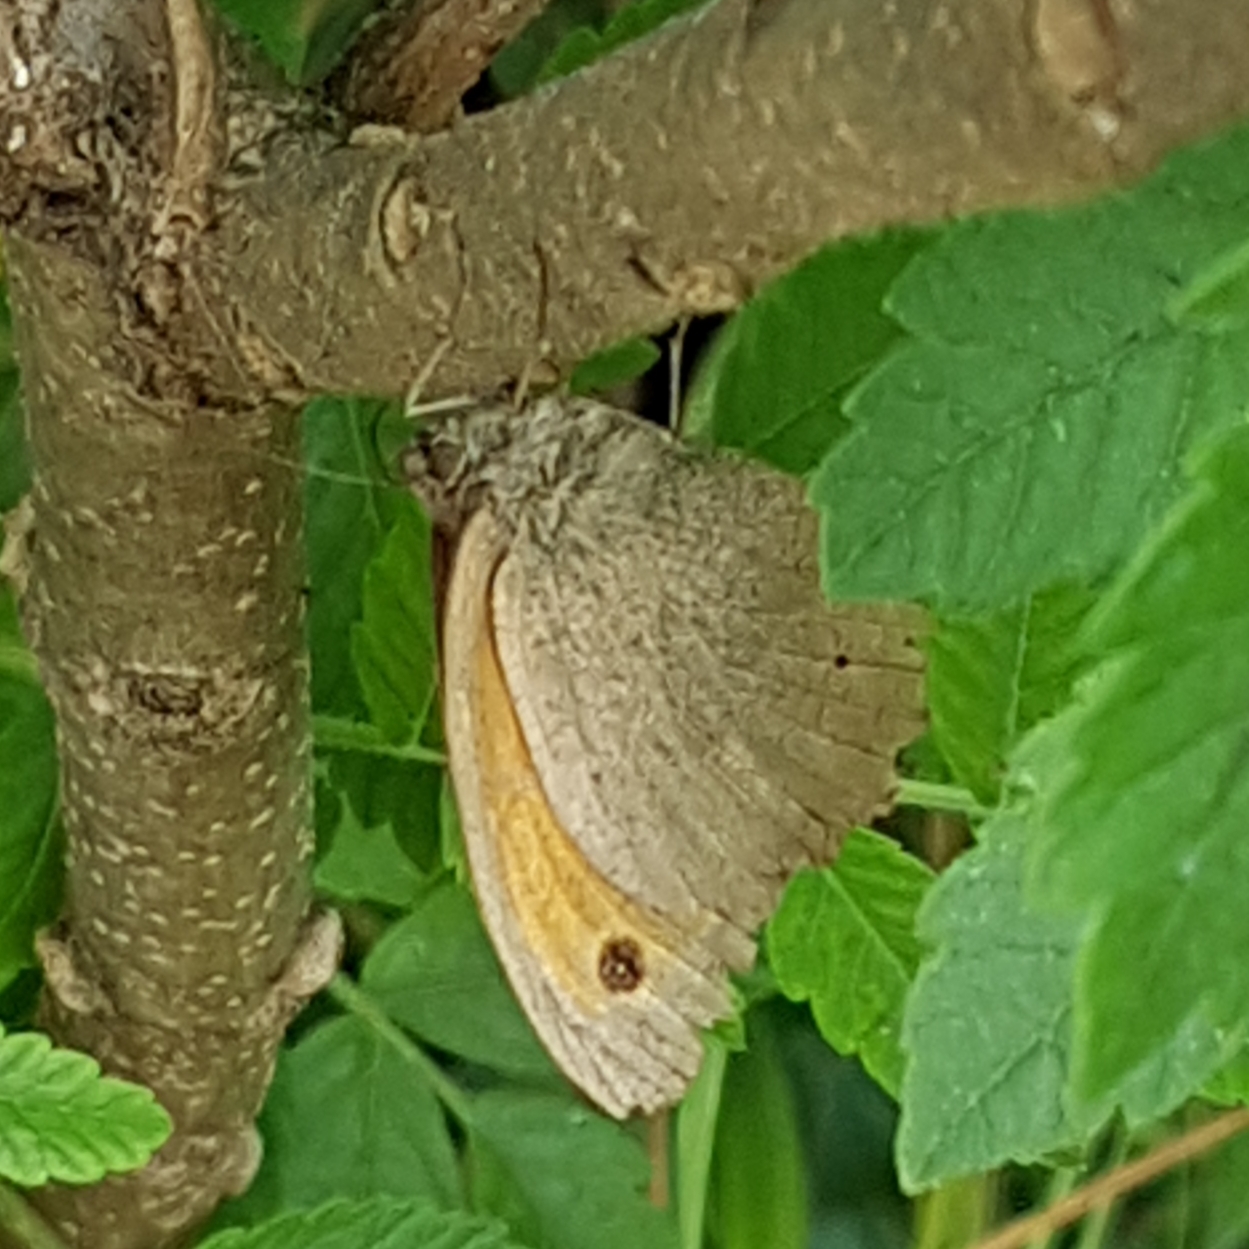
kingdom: Animalia
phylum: Arthropoda
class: Insecta
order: Lepidoptera
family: Nymphalidae
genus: Maniola
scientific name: Maniola jurtina
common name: Meadow brown
